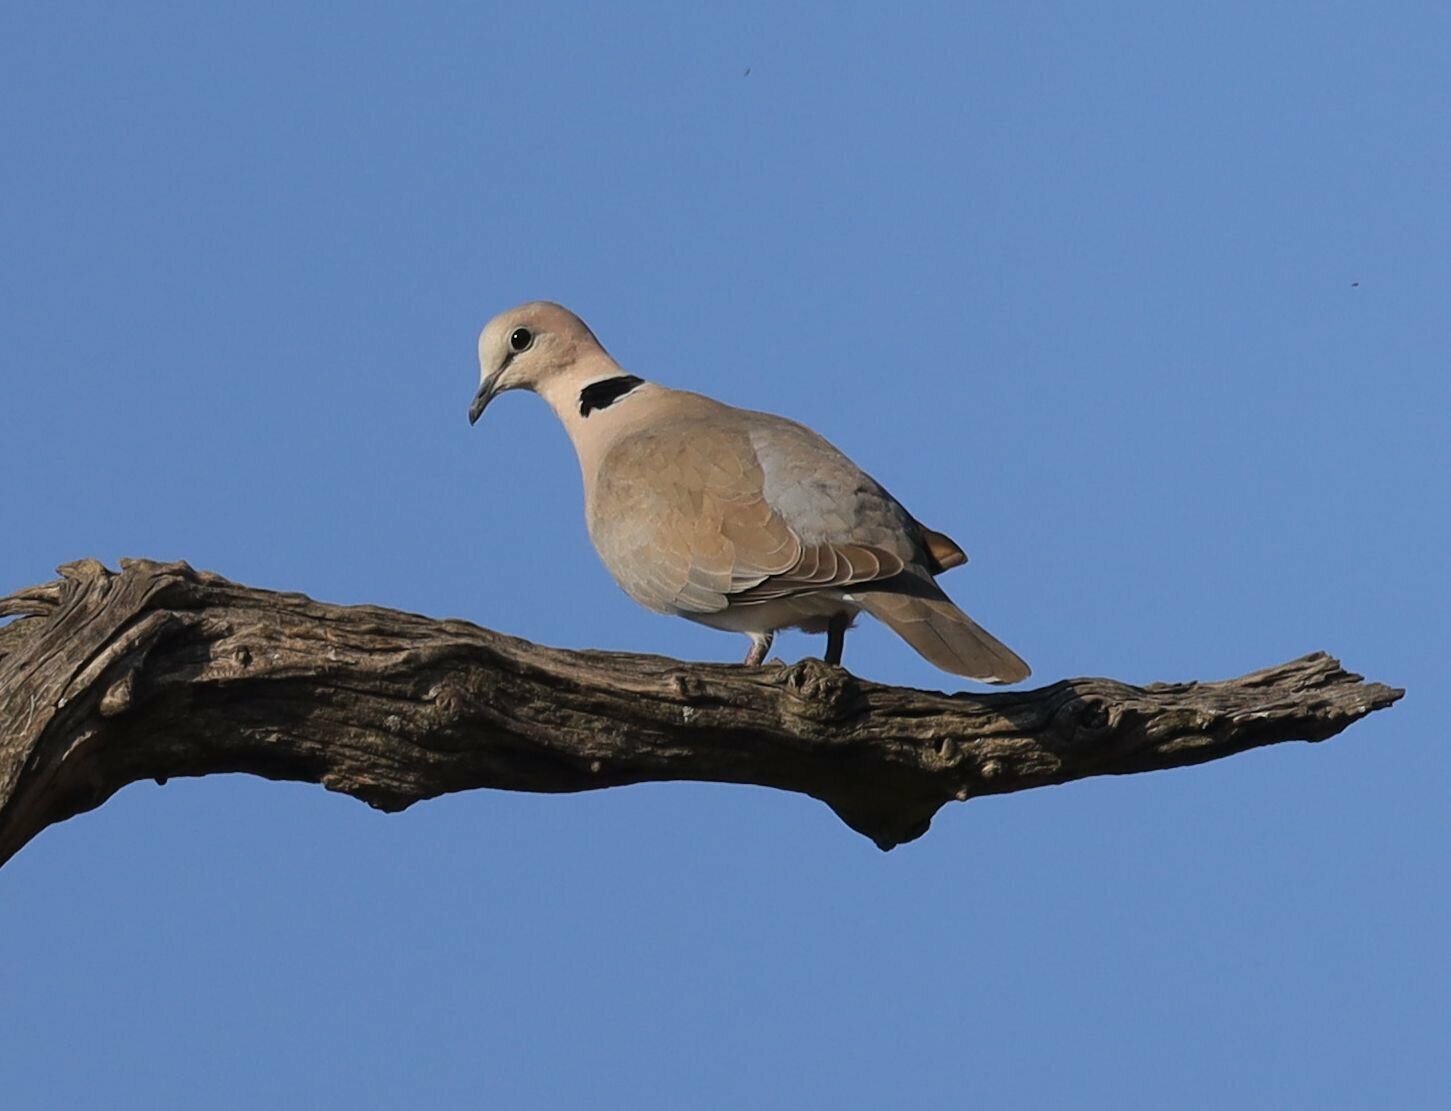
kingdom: Animalia
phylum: Chordata
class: Aves
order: Columbiformes
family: Columbidae
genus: Streptopelia
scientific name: Streptopelia capicola
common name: Ring-necked dove
